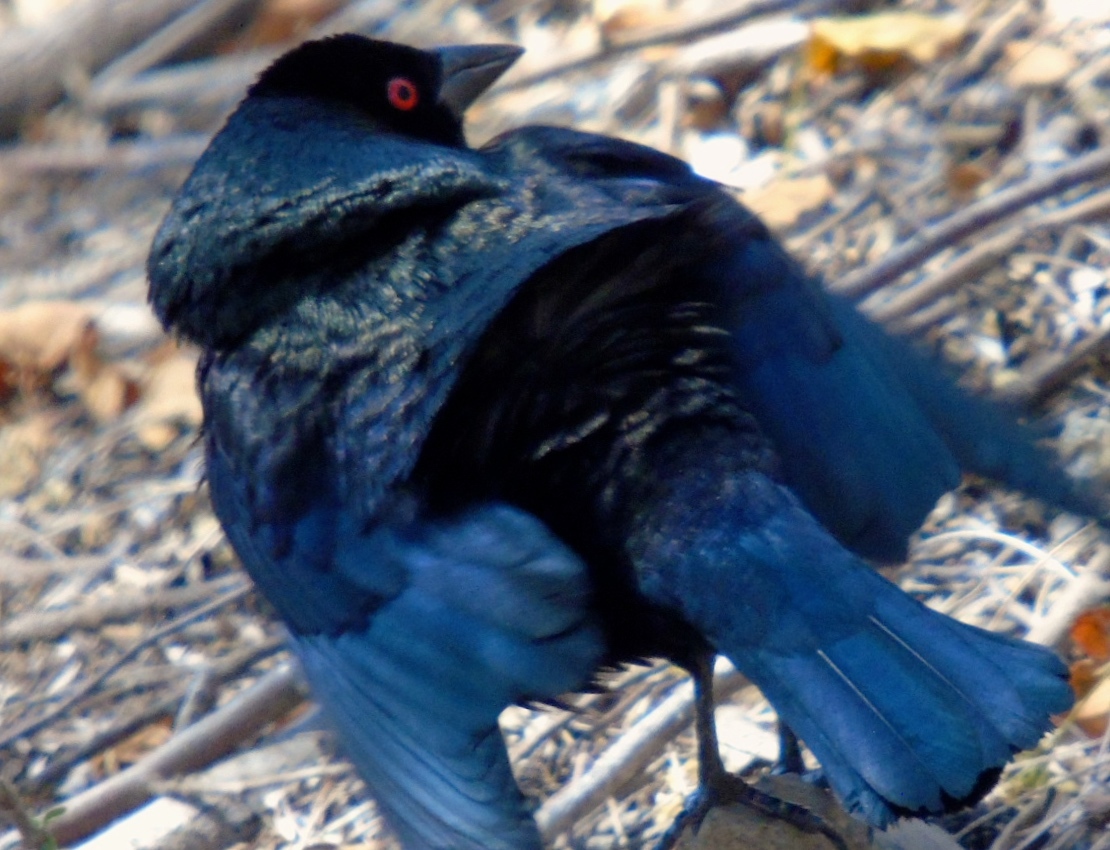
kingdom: Animalia
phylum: Chordata
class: Aves
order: Passeriformes
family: Icteridae
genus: Molothrus
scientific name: Molothrus aeneus
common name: Bronzed cowbird
